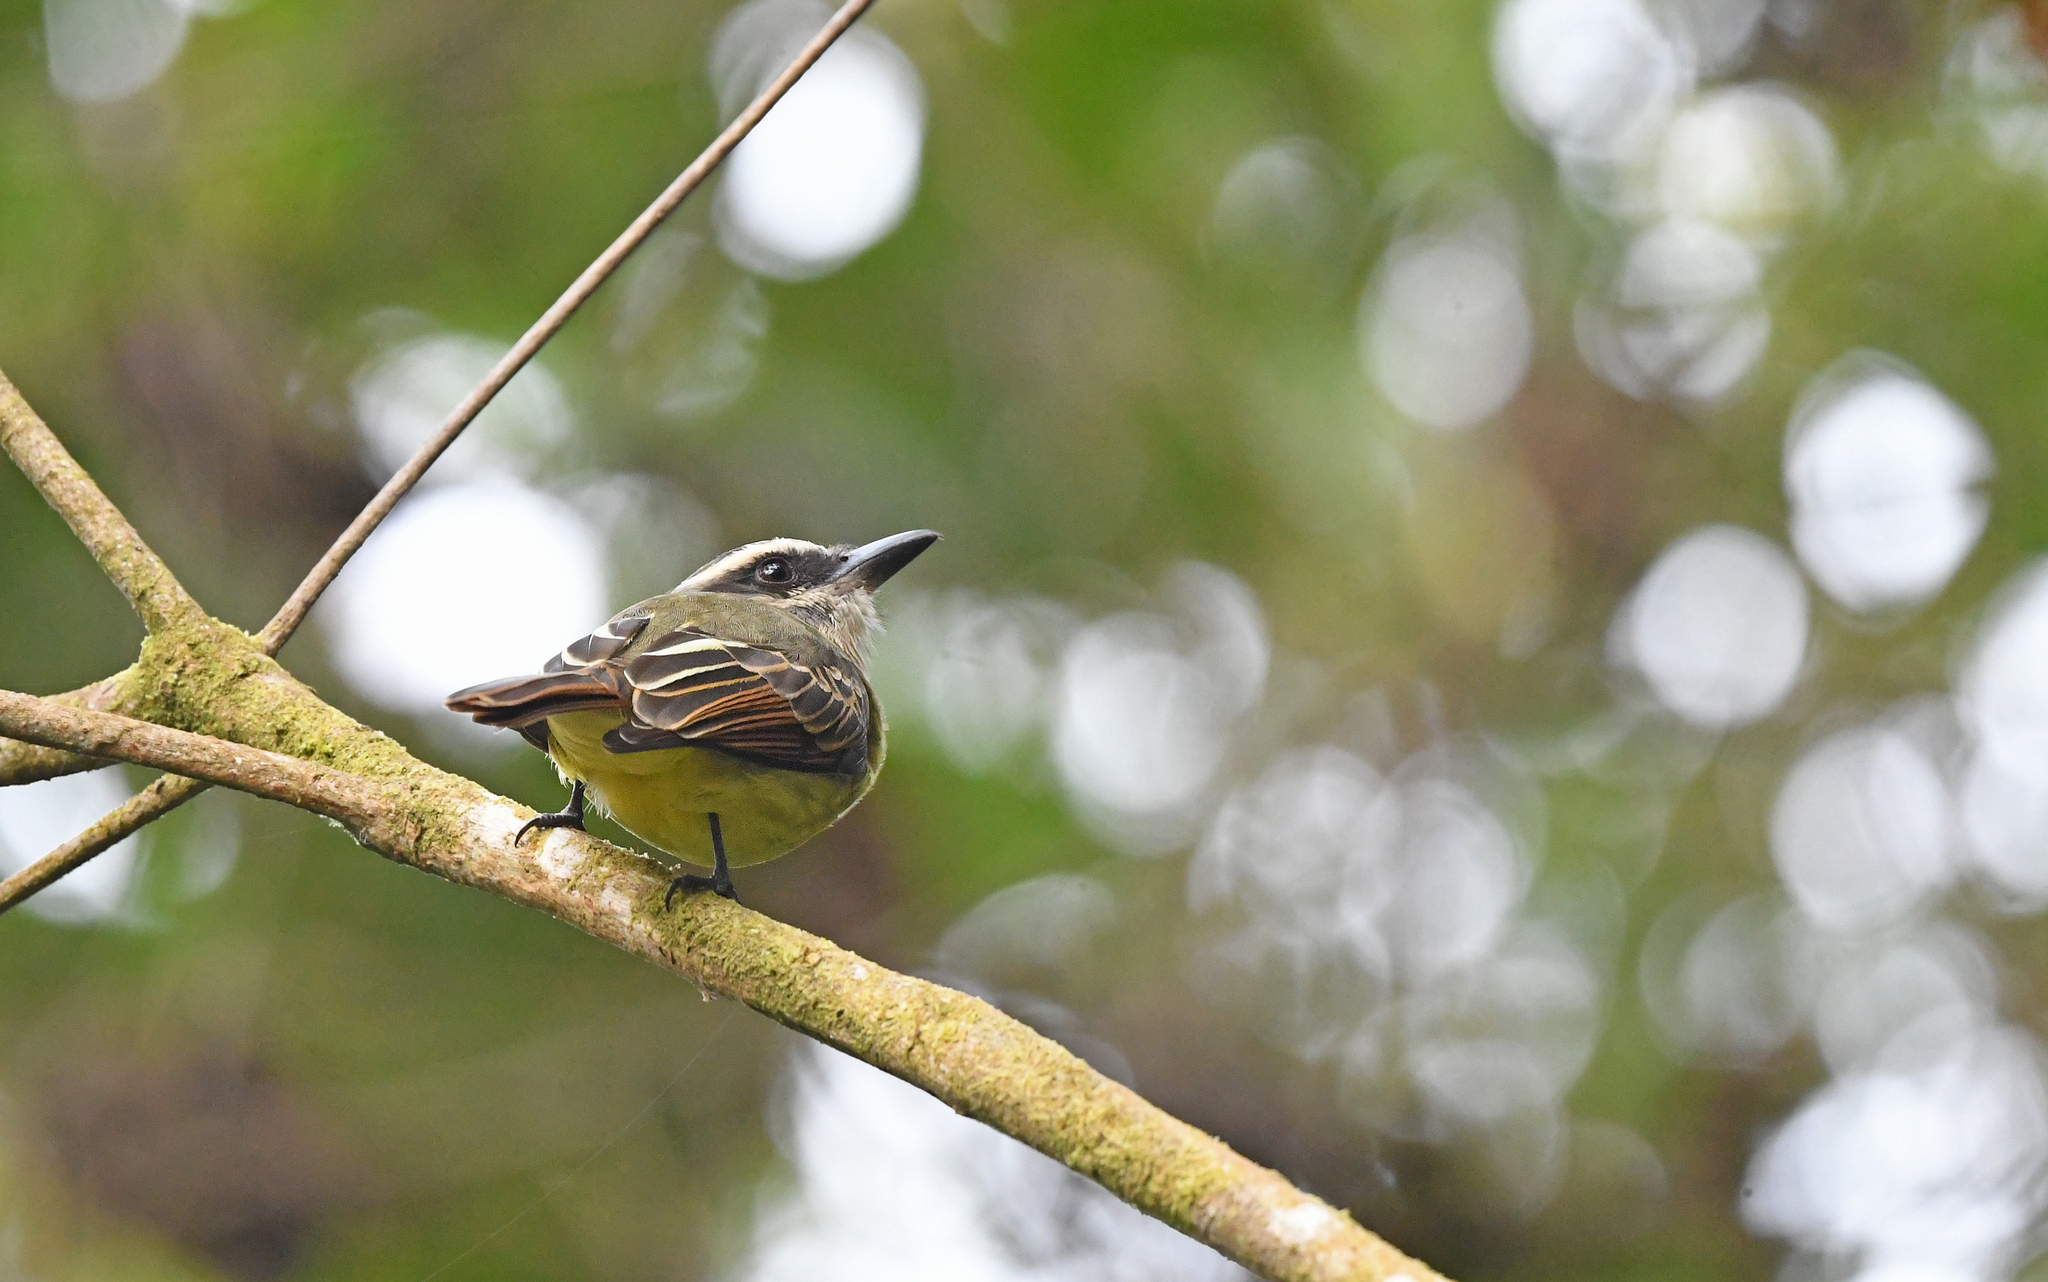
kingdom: Animalia
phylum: Chordata
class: Aves
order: Passeriformes
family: Tyrannidae
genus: Myiodynastes
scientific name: Myiodynastes hemichrysus
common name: Golden-bellied flycatcher
